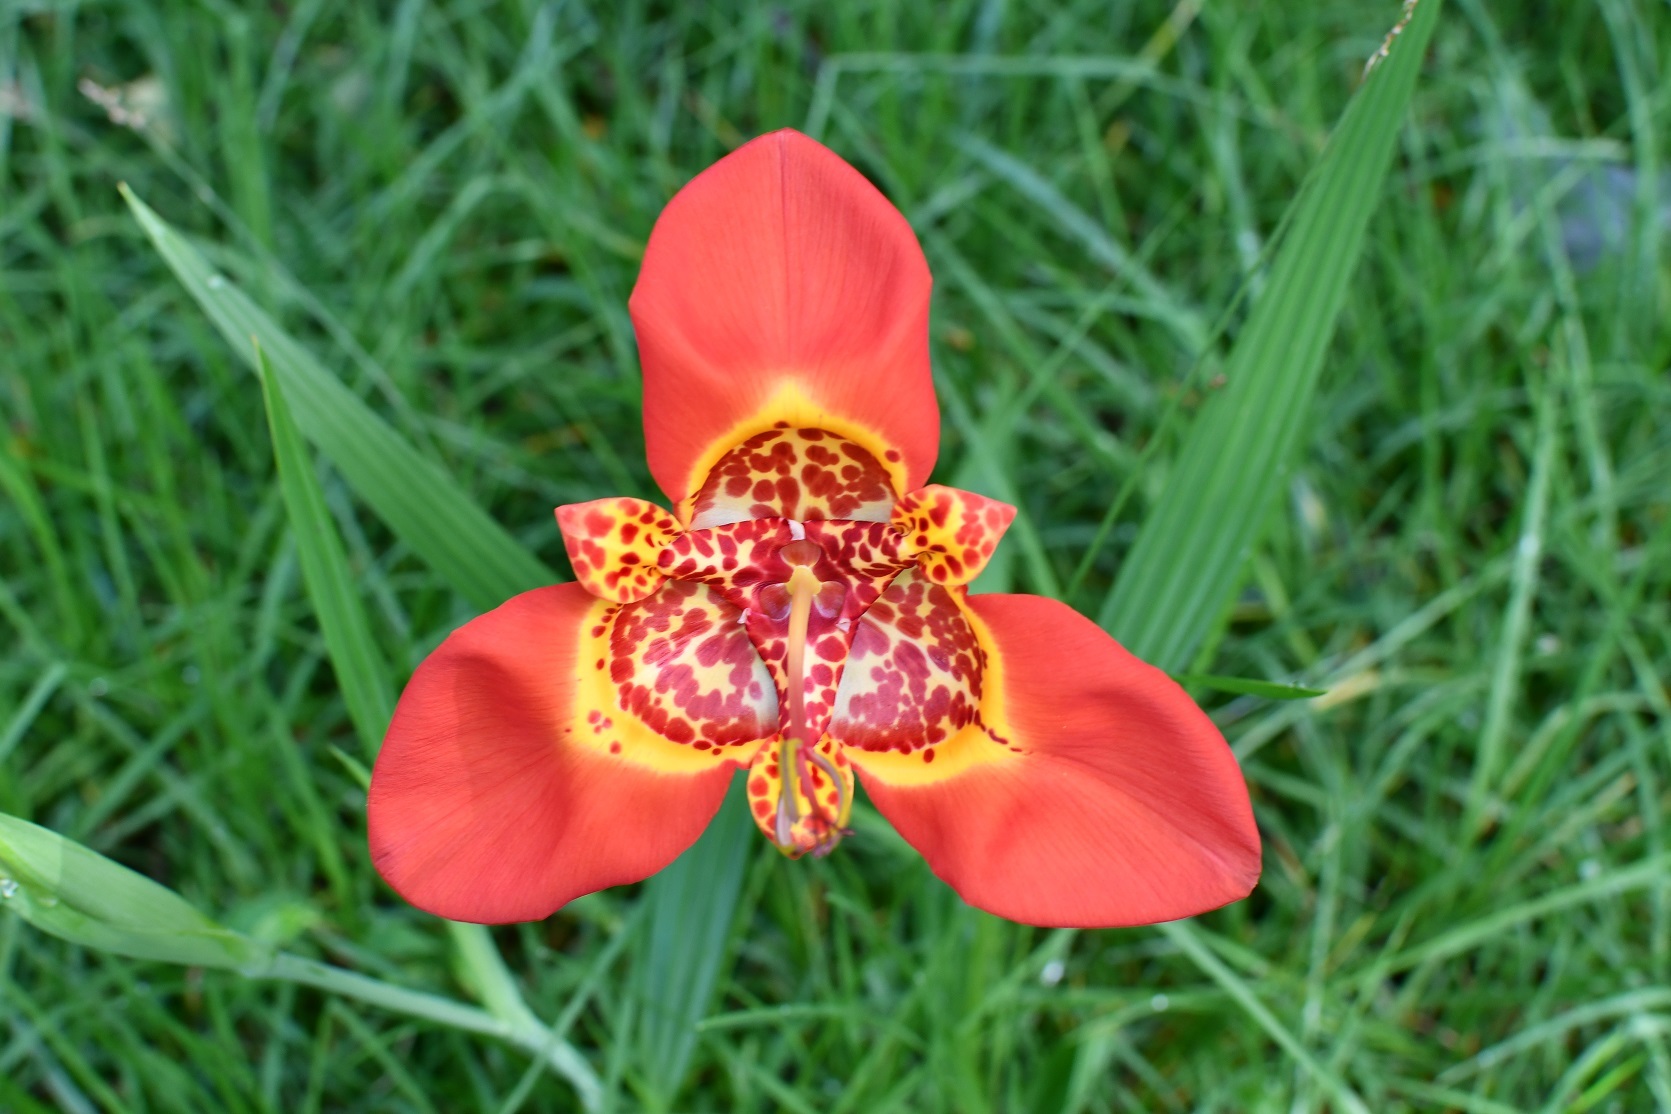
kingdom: Plantae
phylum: Tracheophyta
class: Liliopsida
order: Asparagales
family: Iridaceae
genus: Tigridia
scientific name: Tigridia pavonia
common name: Peacock-flower
